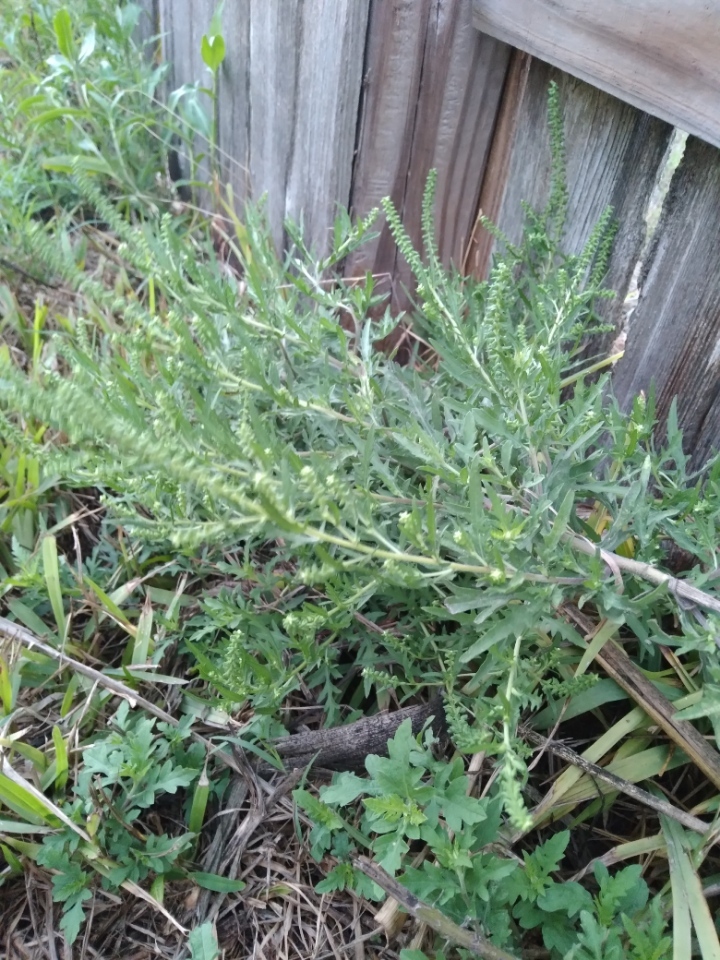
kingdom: Plantae
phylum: Tracheophyta
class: Magnoliopsida
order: Asterales
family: Asteraceae
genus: Ambrosia
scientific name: Ambrosia psilostachya
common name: Perennial ragweed
